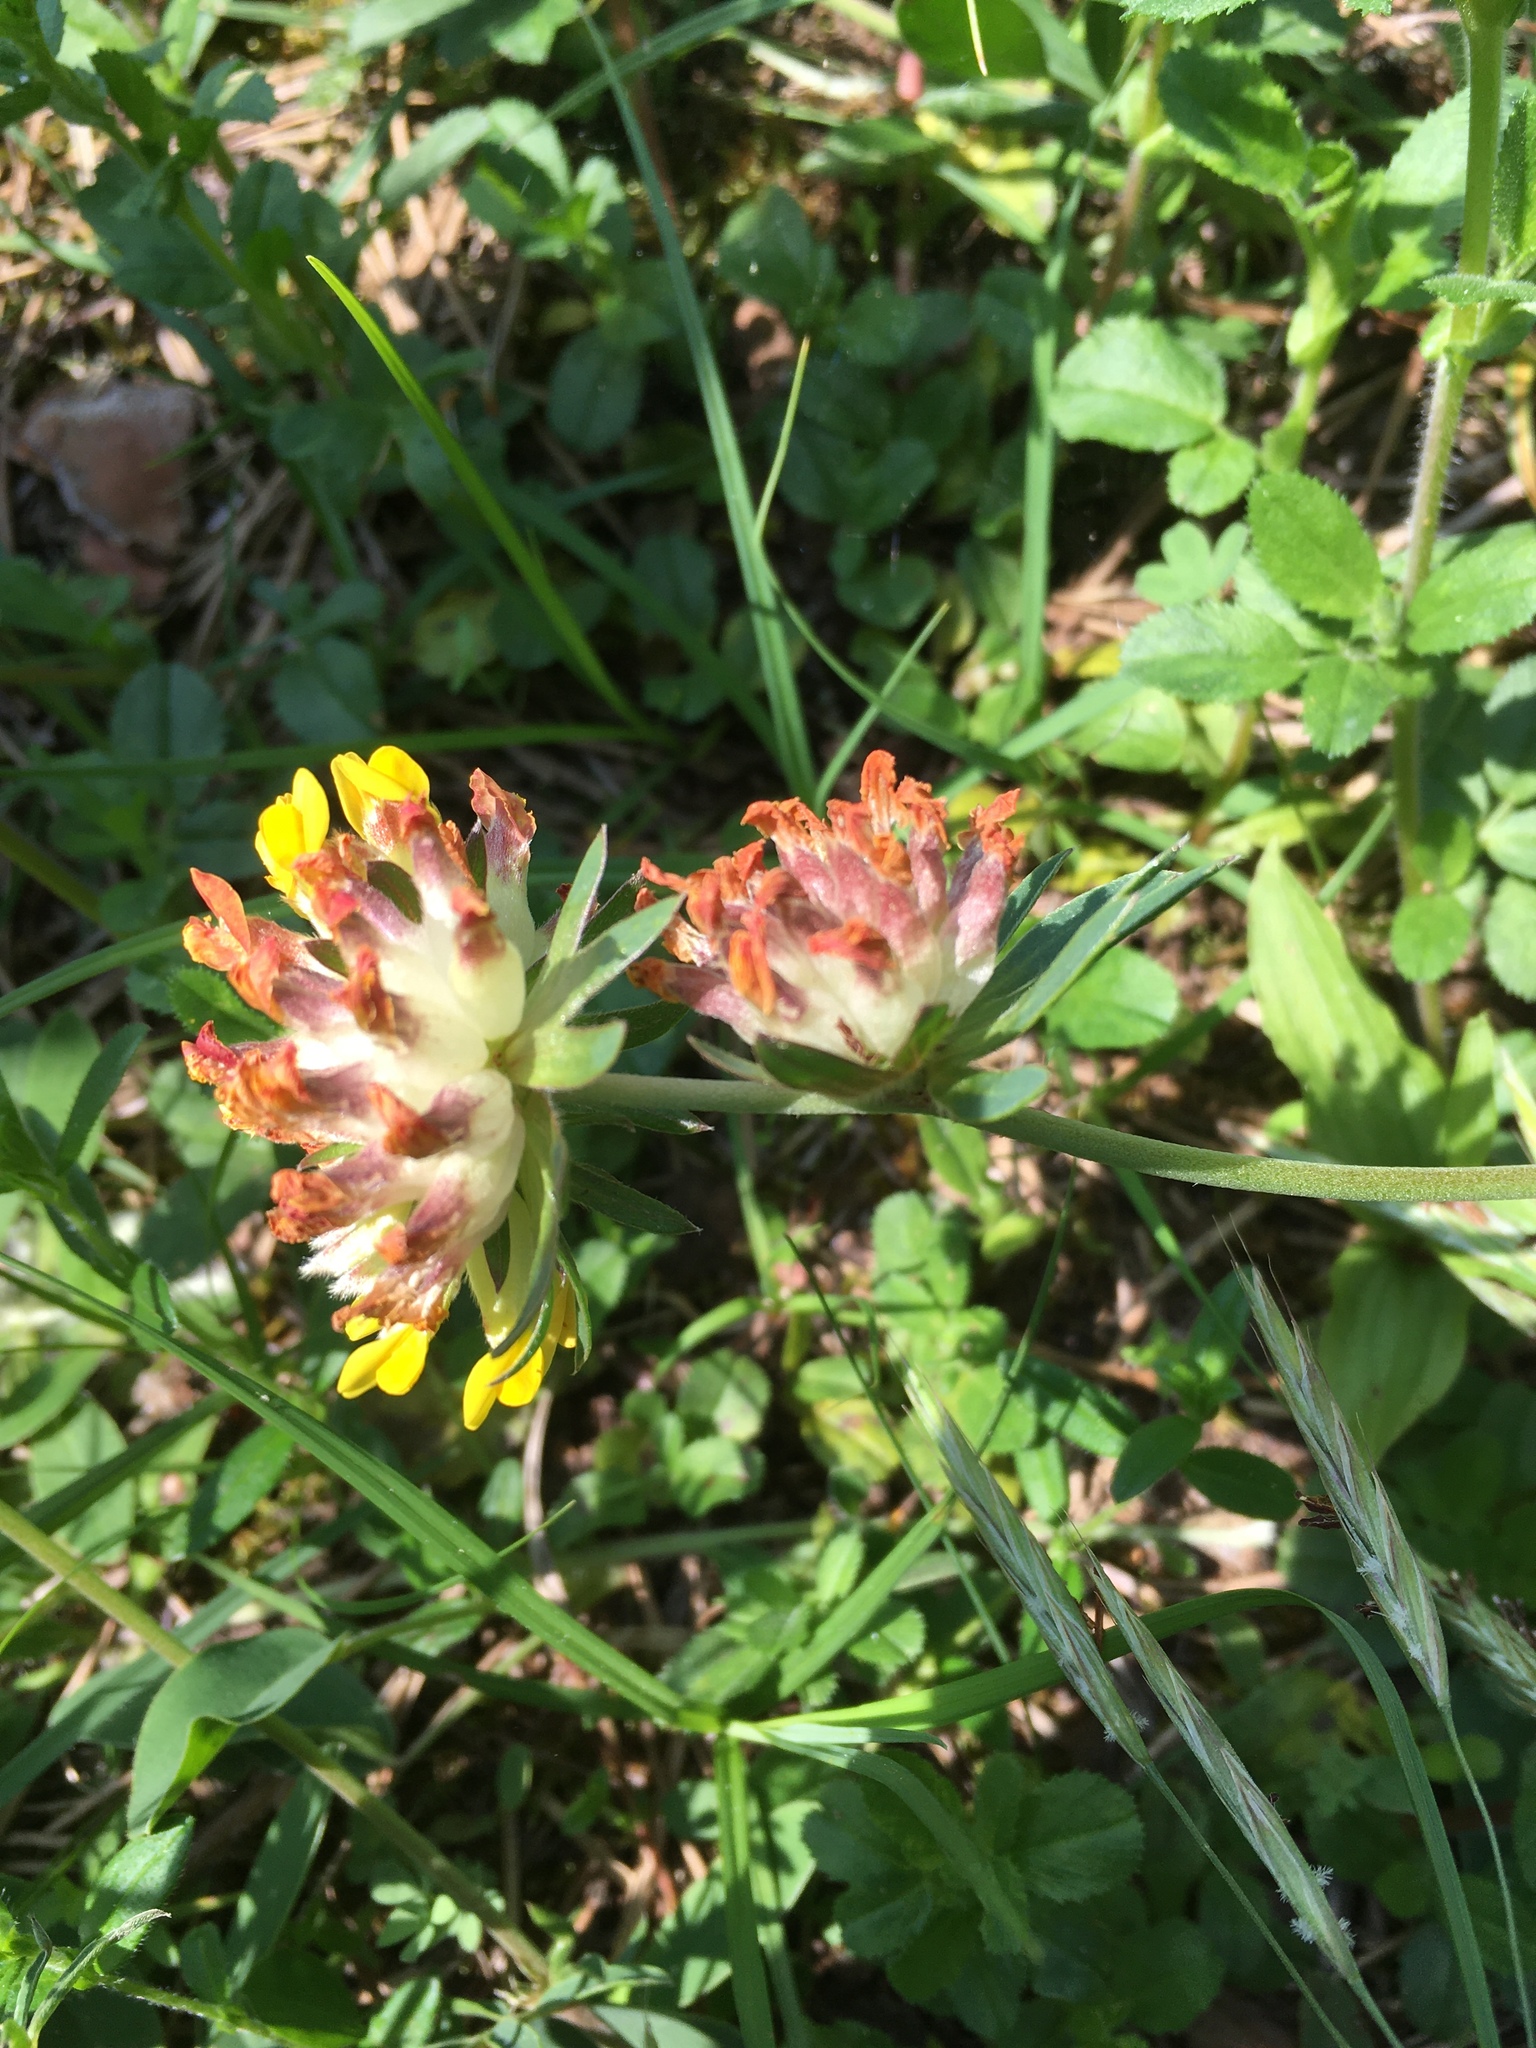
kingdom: Plantae
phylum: Tracheophyta
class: Magnoliopsida
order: Fabales
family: Fabaceae
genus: Anthyllis
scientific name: Anthyllis vulneraria
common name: Kidney vetch
